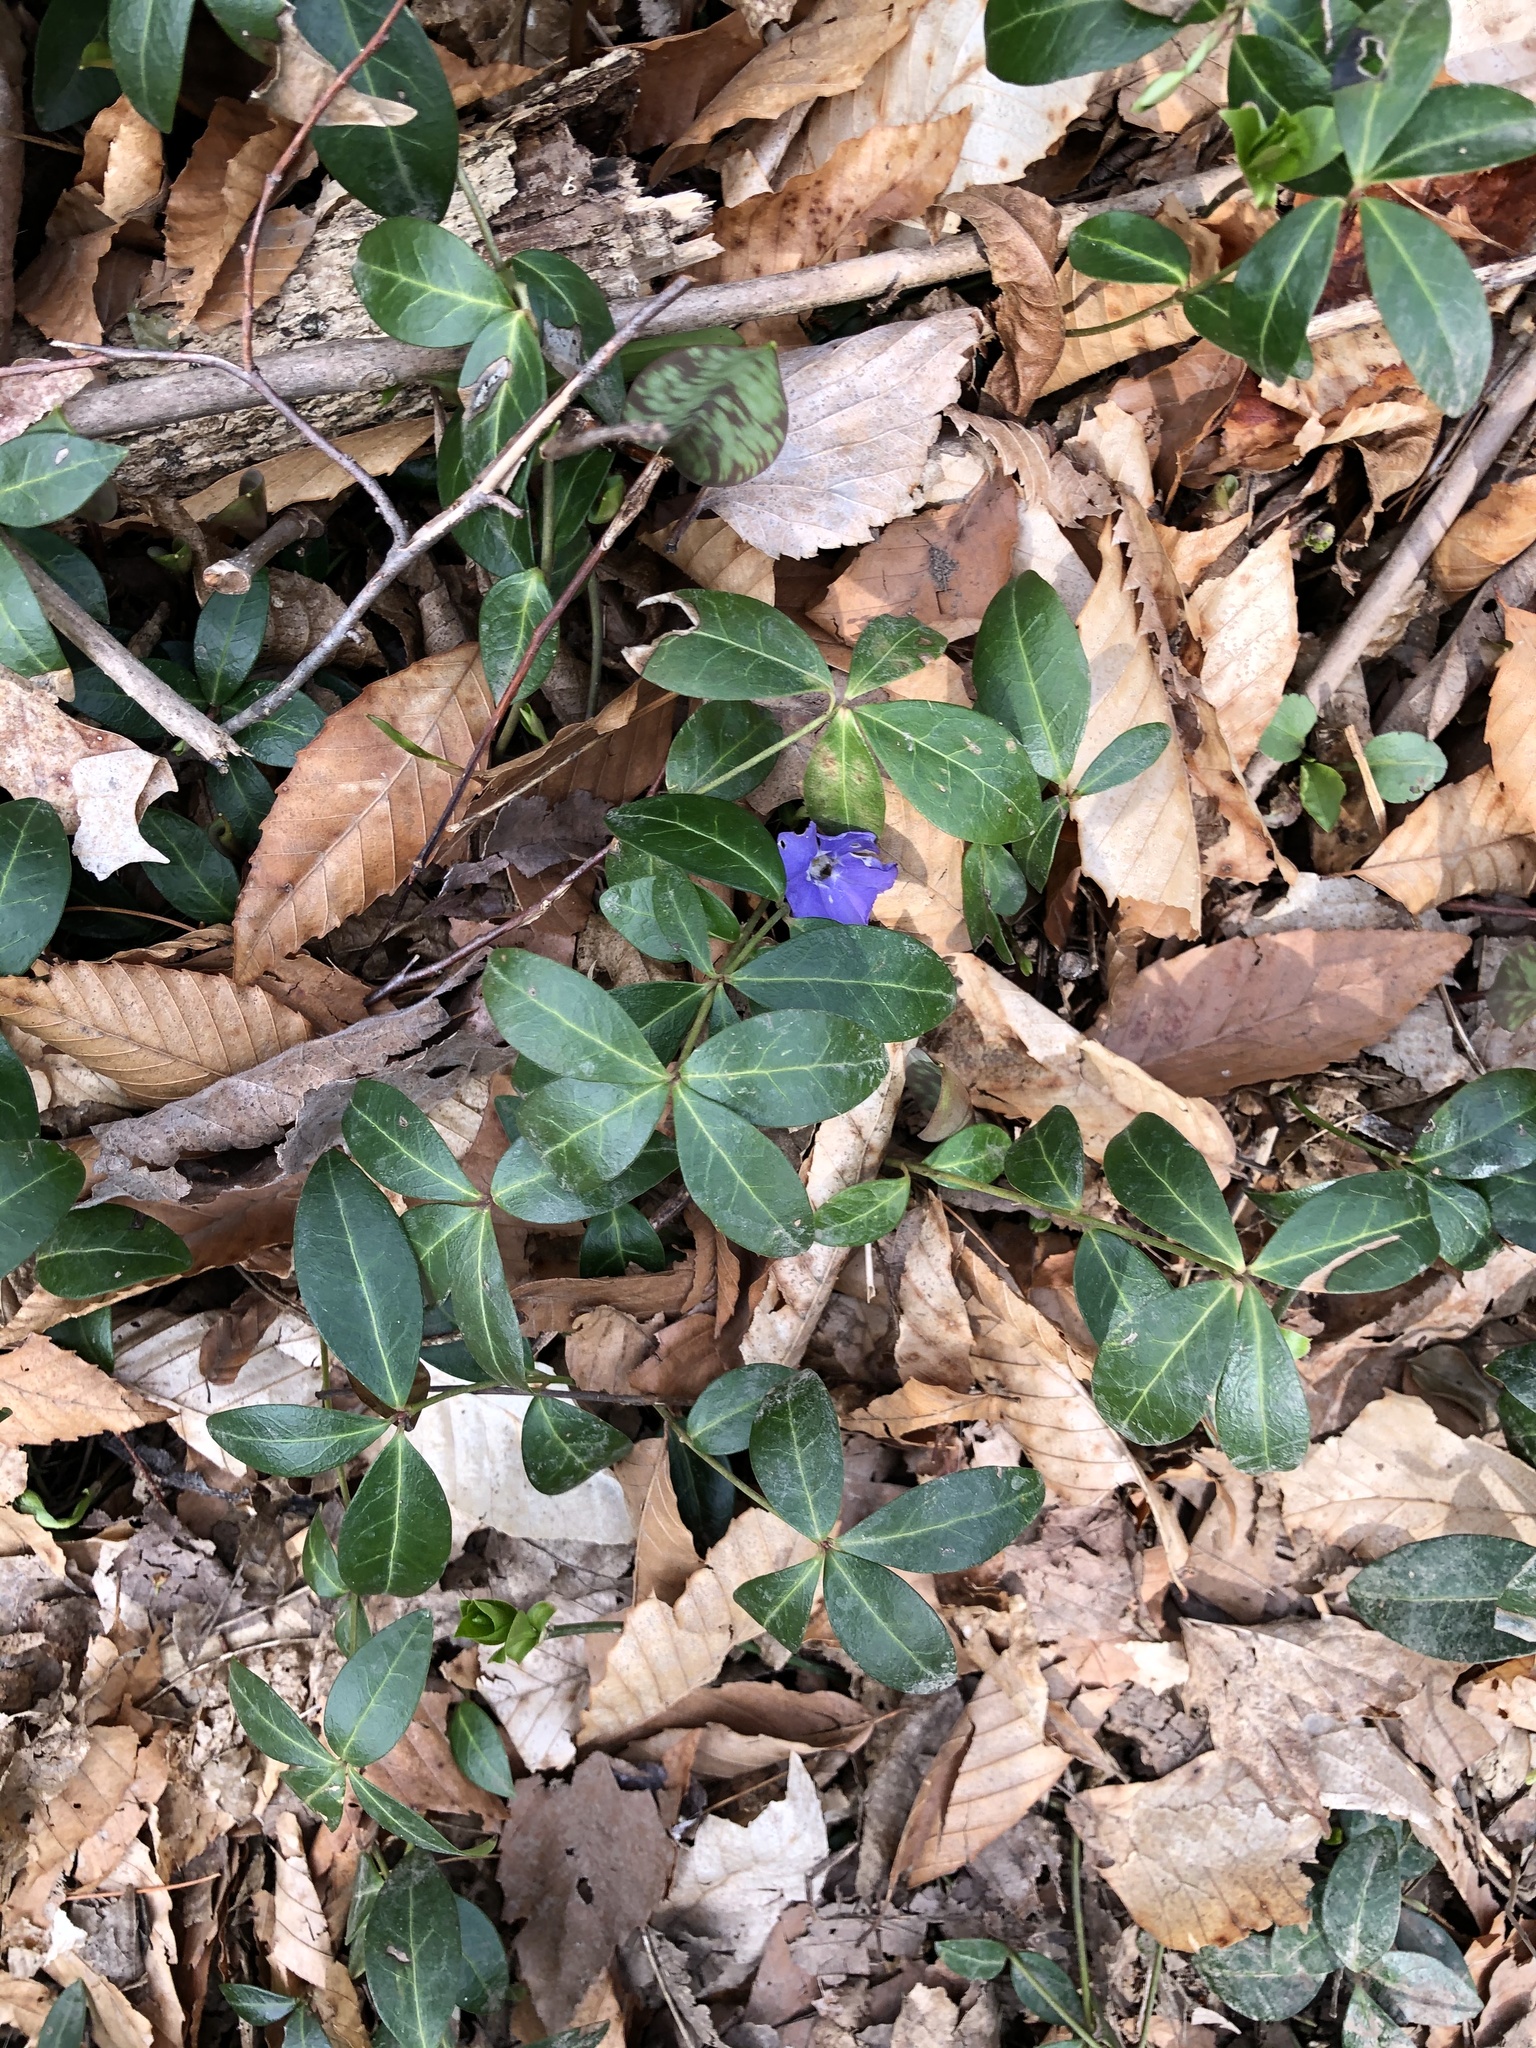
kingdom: Plantae
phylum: Tracheophyta
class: Magnoliopsida
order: Gentianales
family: Apocynaceae
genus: Vinca
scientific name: Vinca minor
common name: Lesser periwinkle
